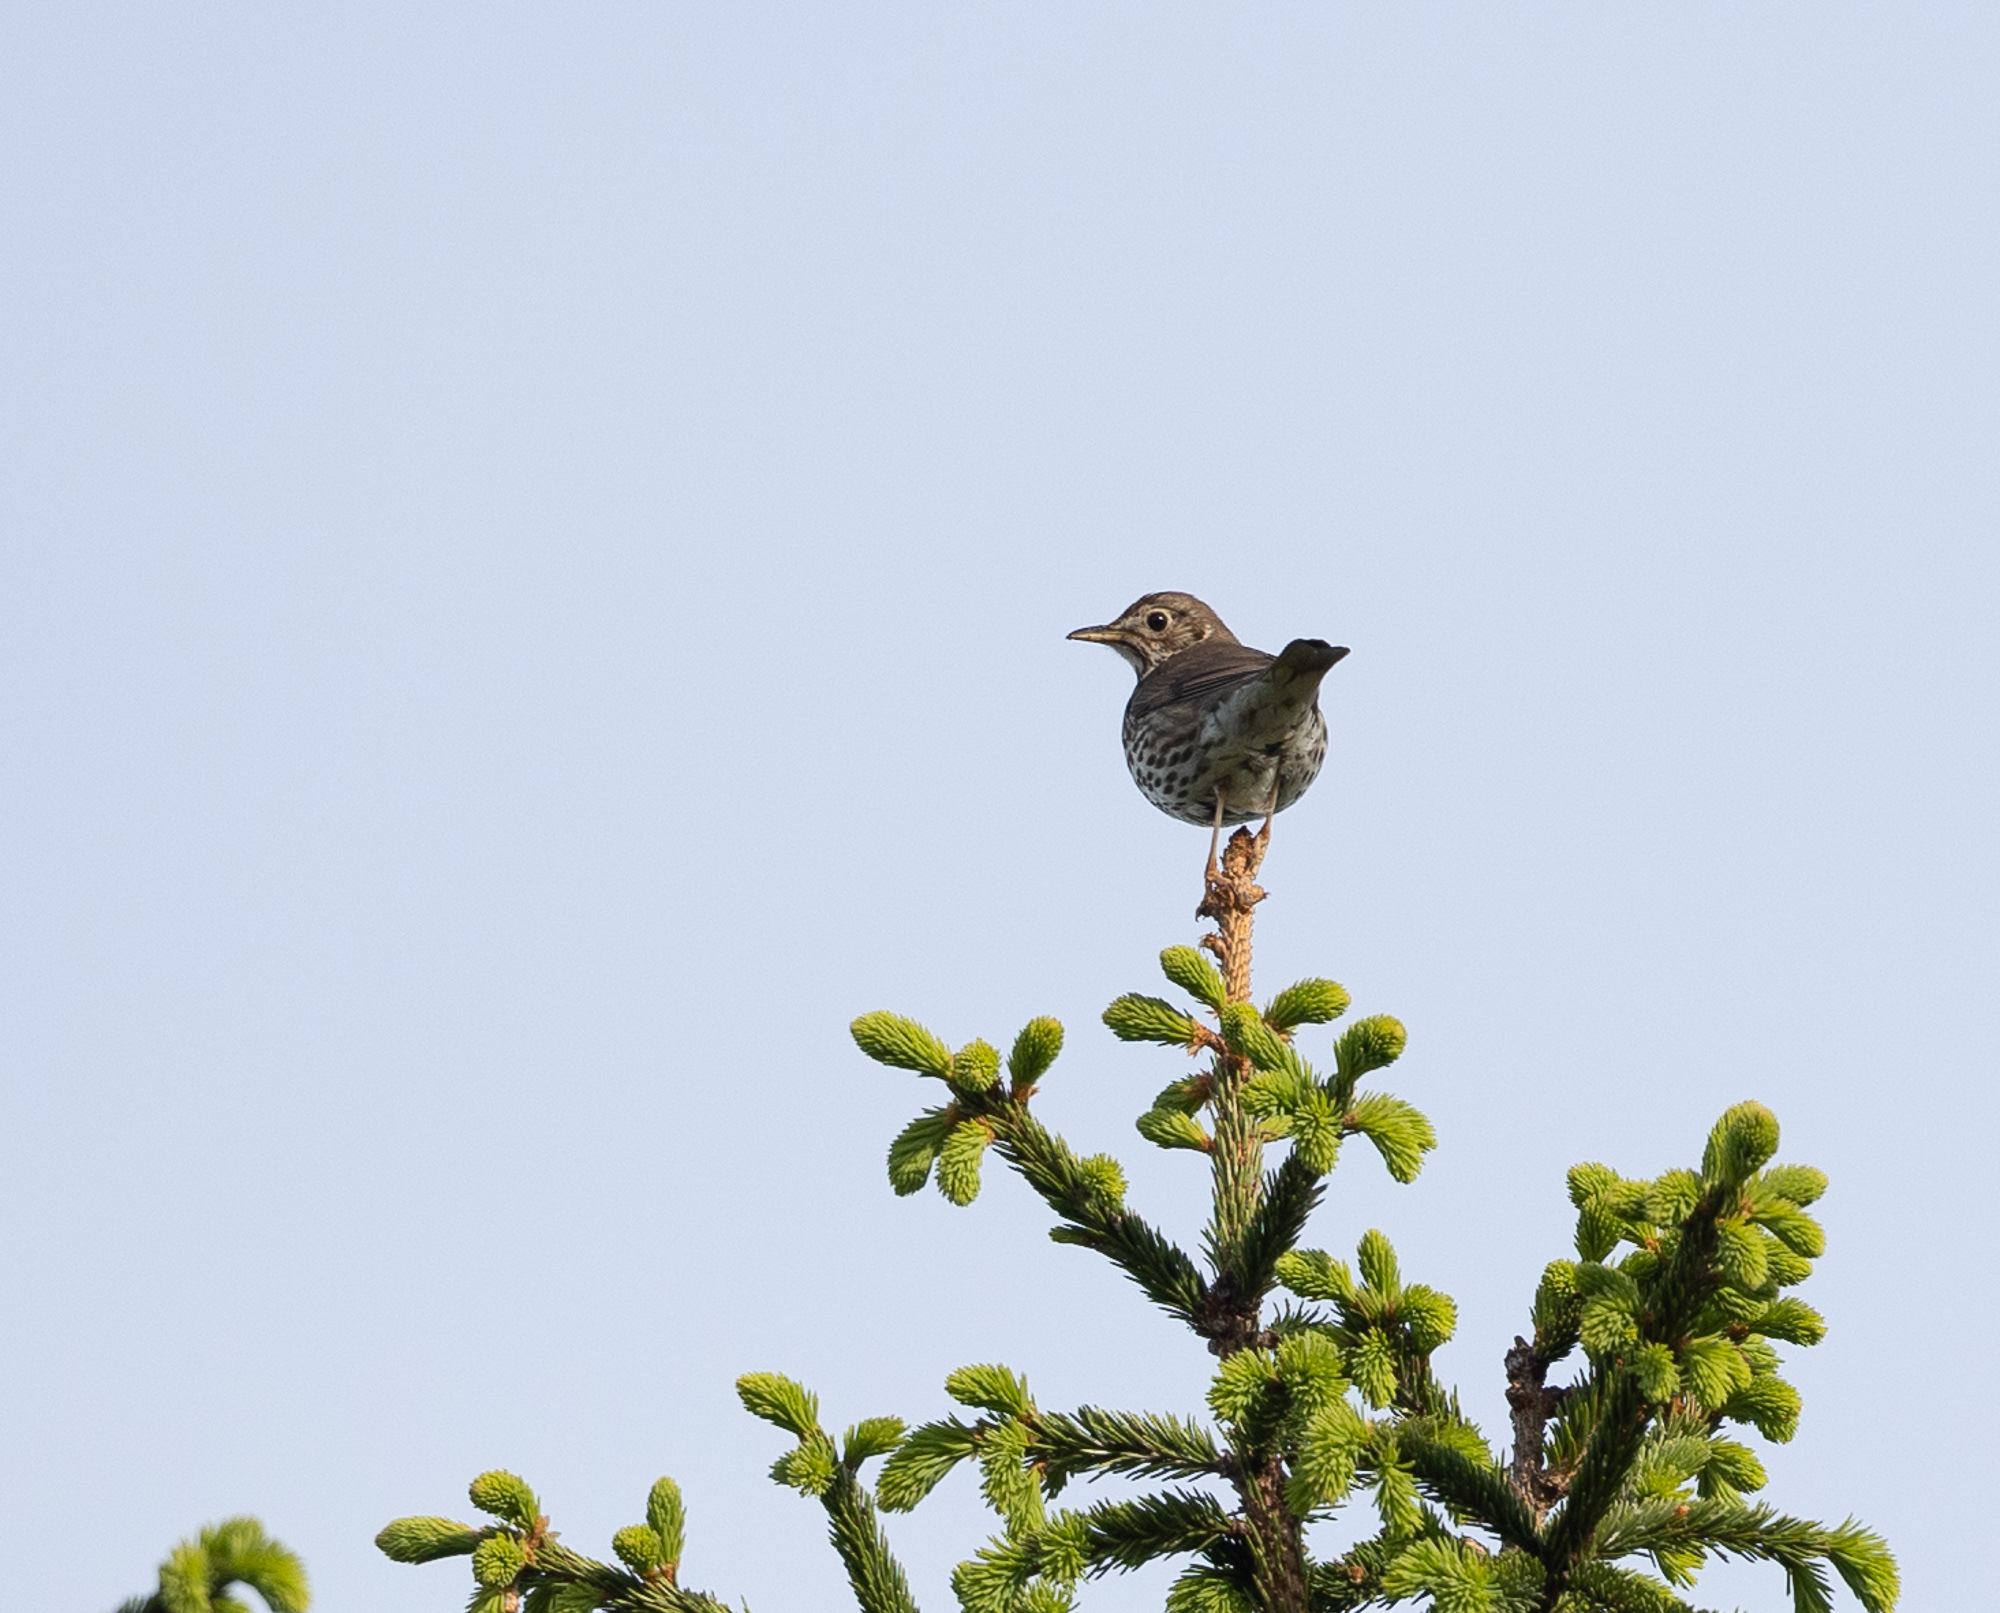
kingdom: Animalia
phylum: Chordata
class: Aves
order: Passeriformes
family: Turdidae
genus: Turdus
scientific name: Turdus philomelos
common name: Song thrush
